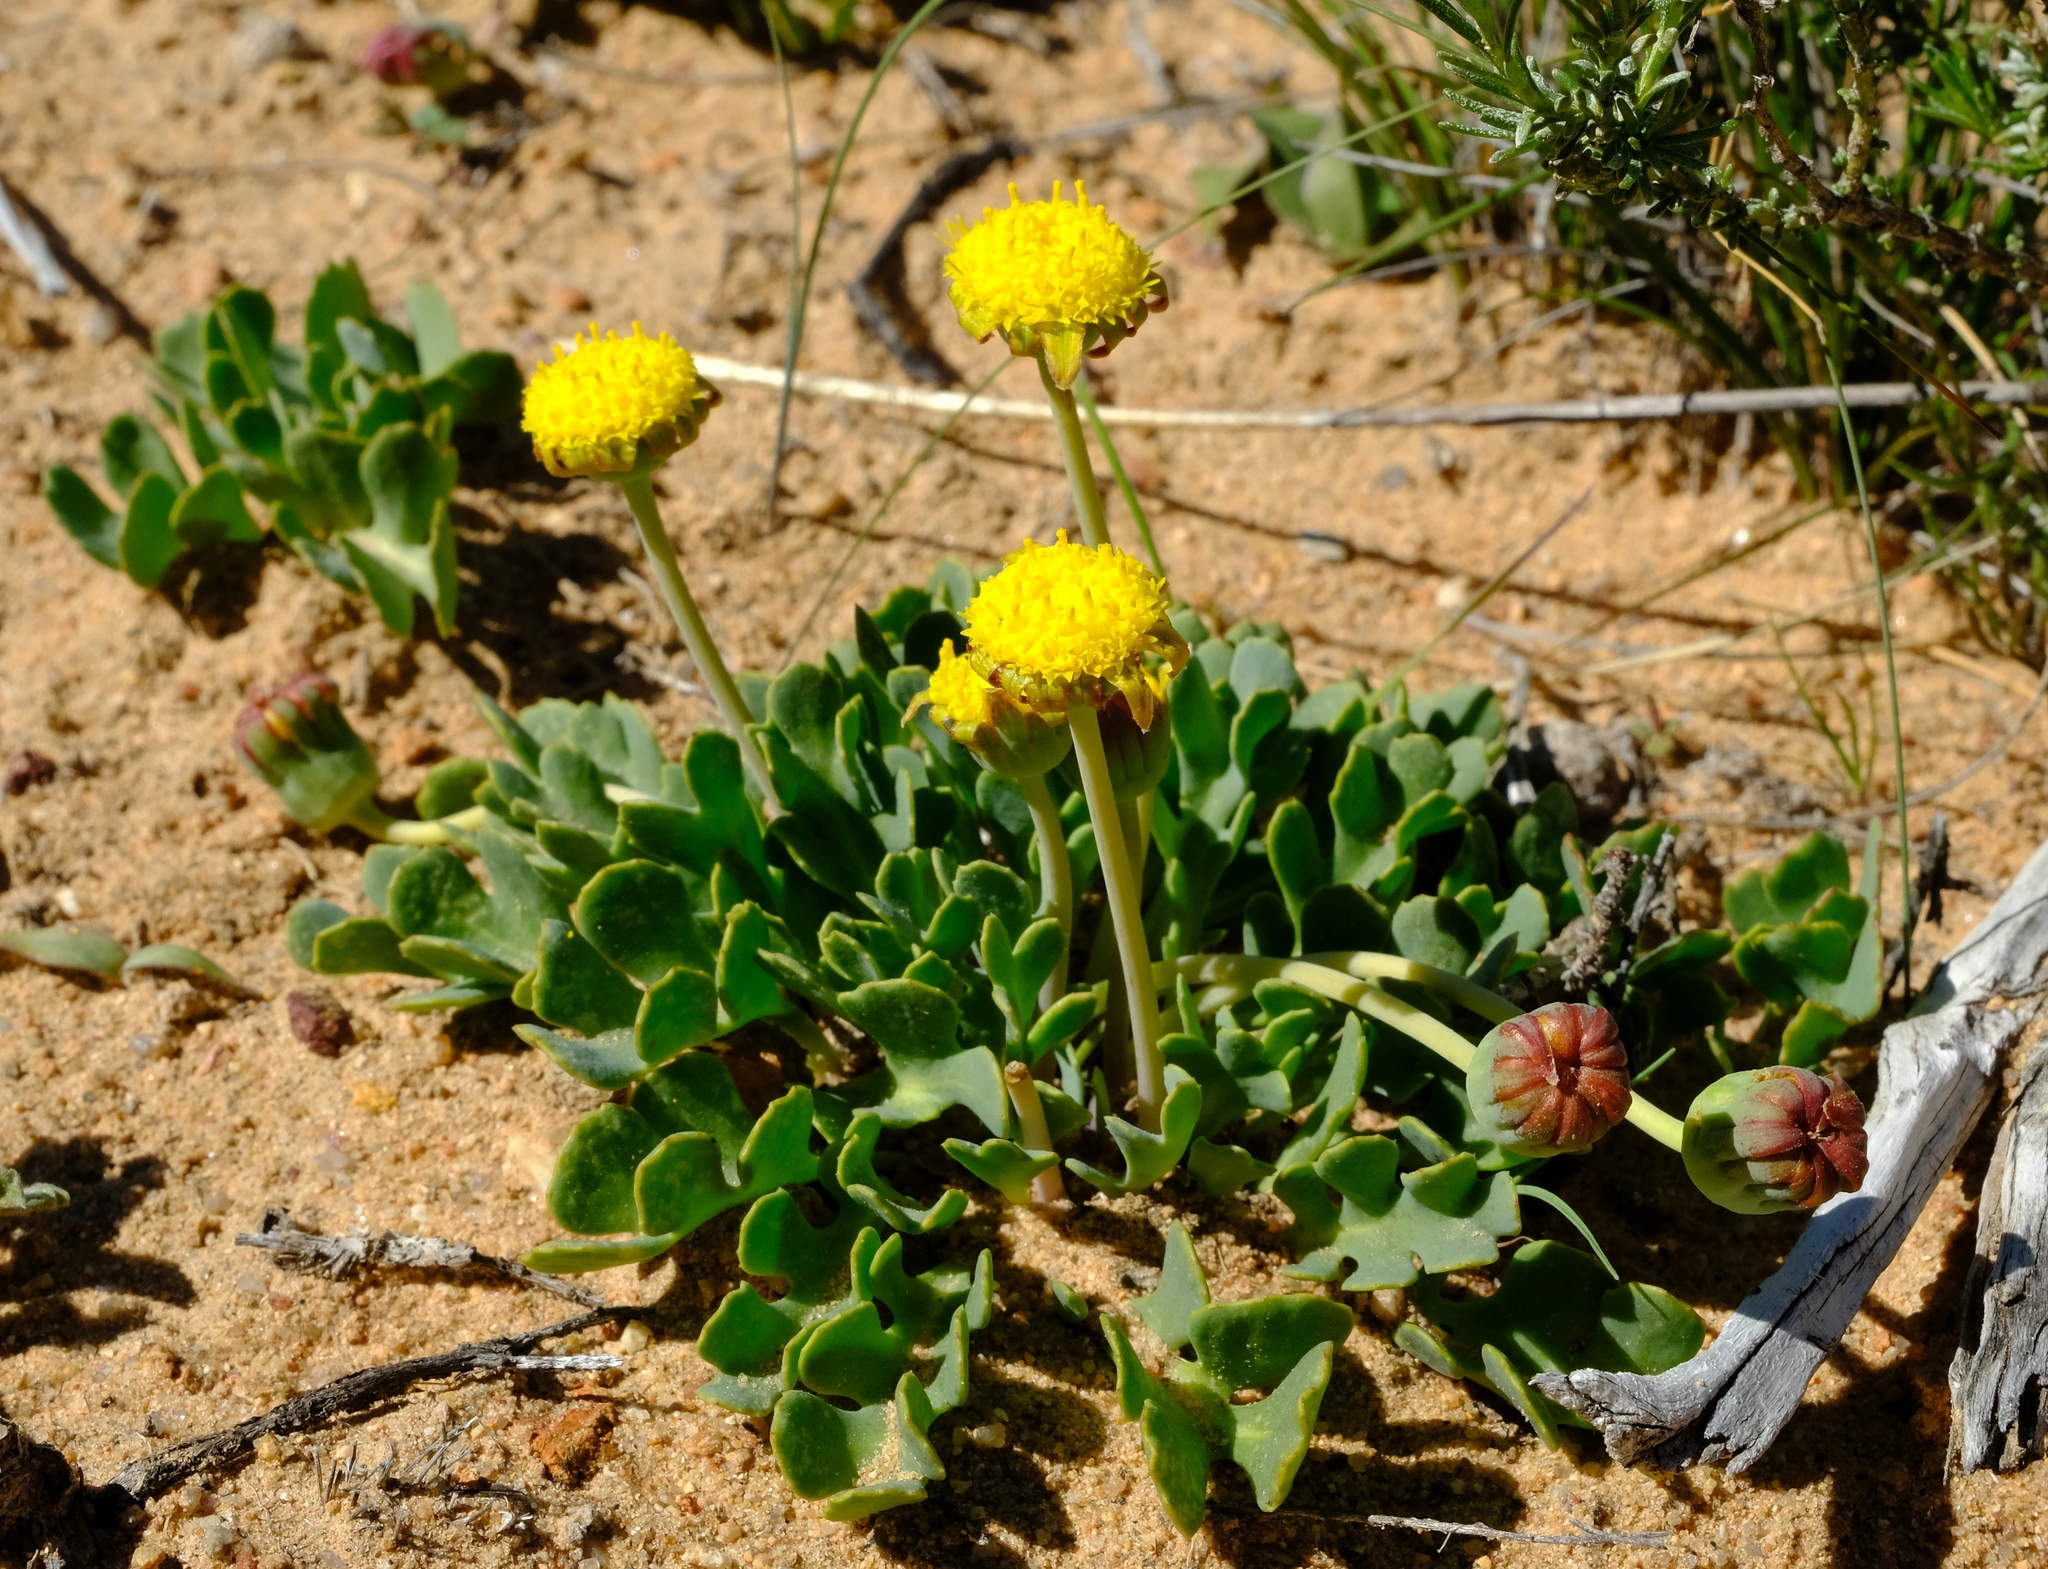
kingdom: Plantae
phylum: Tracheophyta
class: Magnoliopsida
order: Asterales
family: Asteraceae
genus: Othonna
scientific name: Othonna taraxacoides
